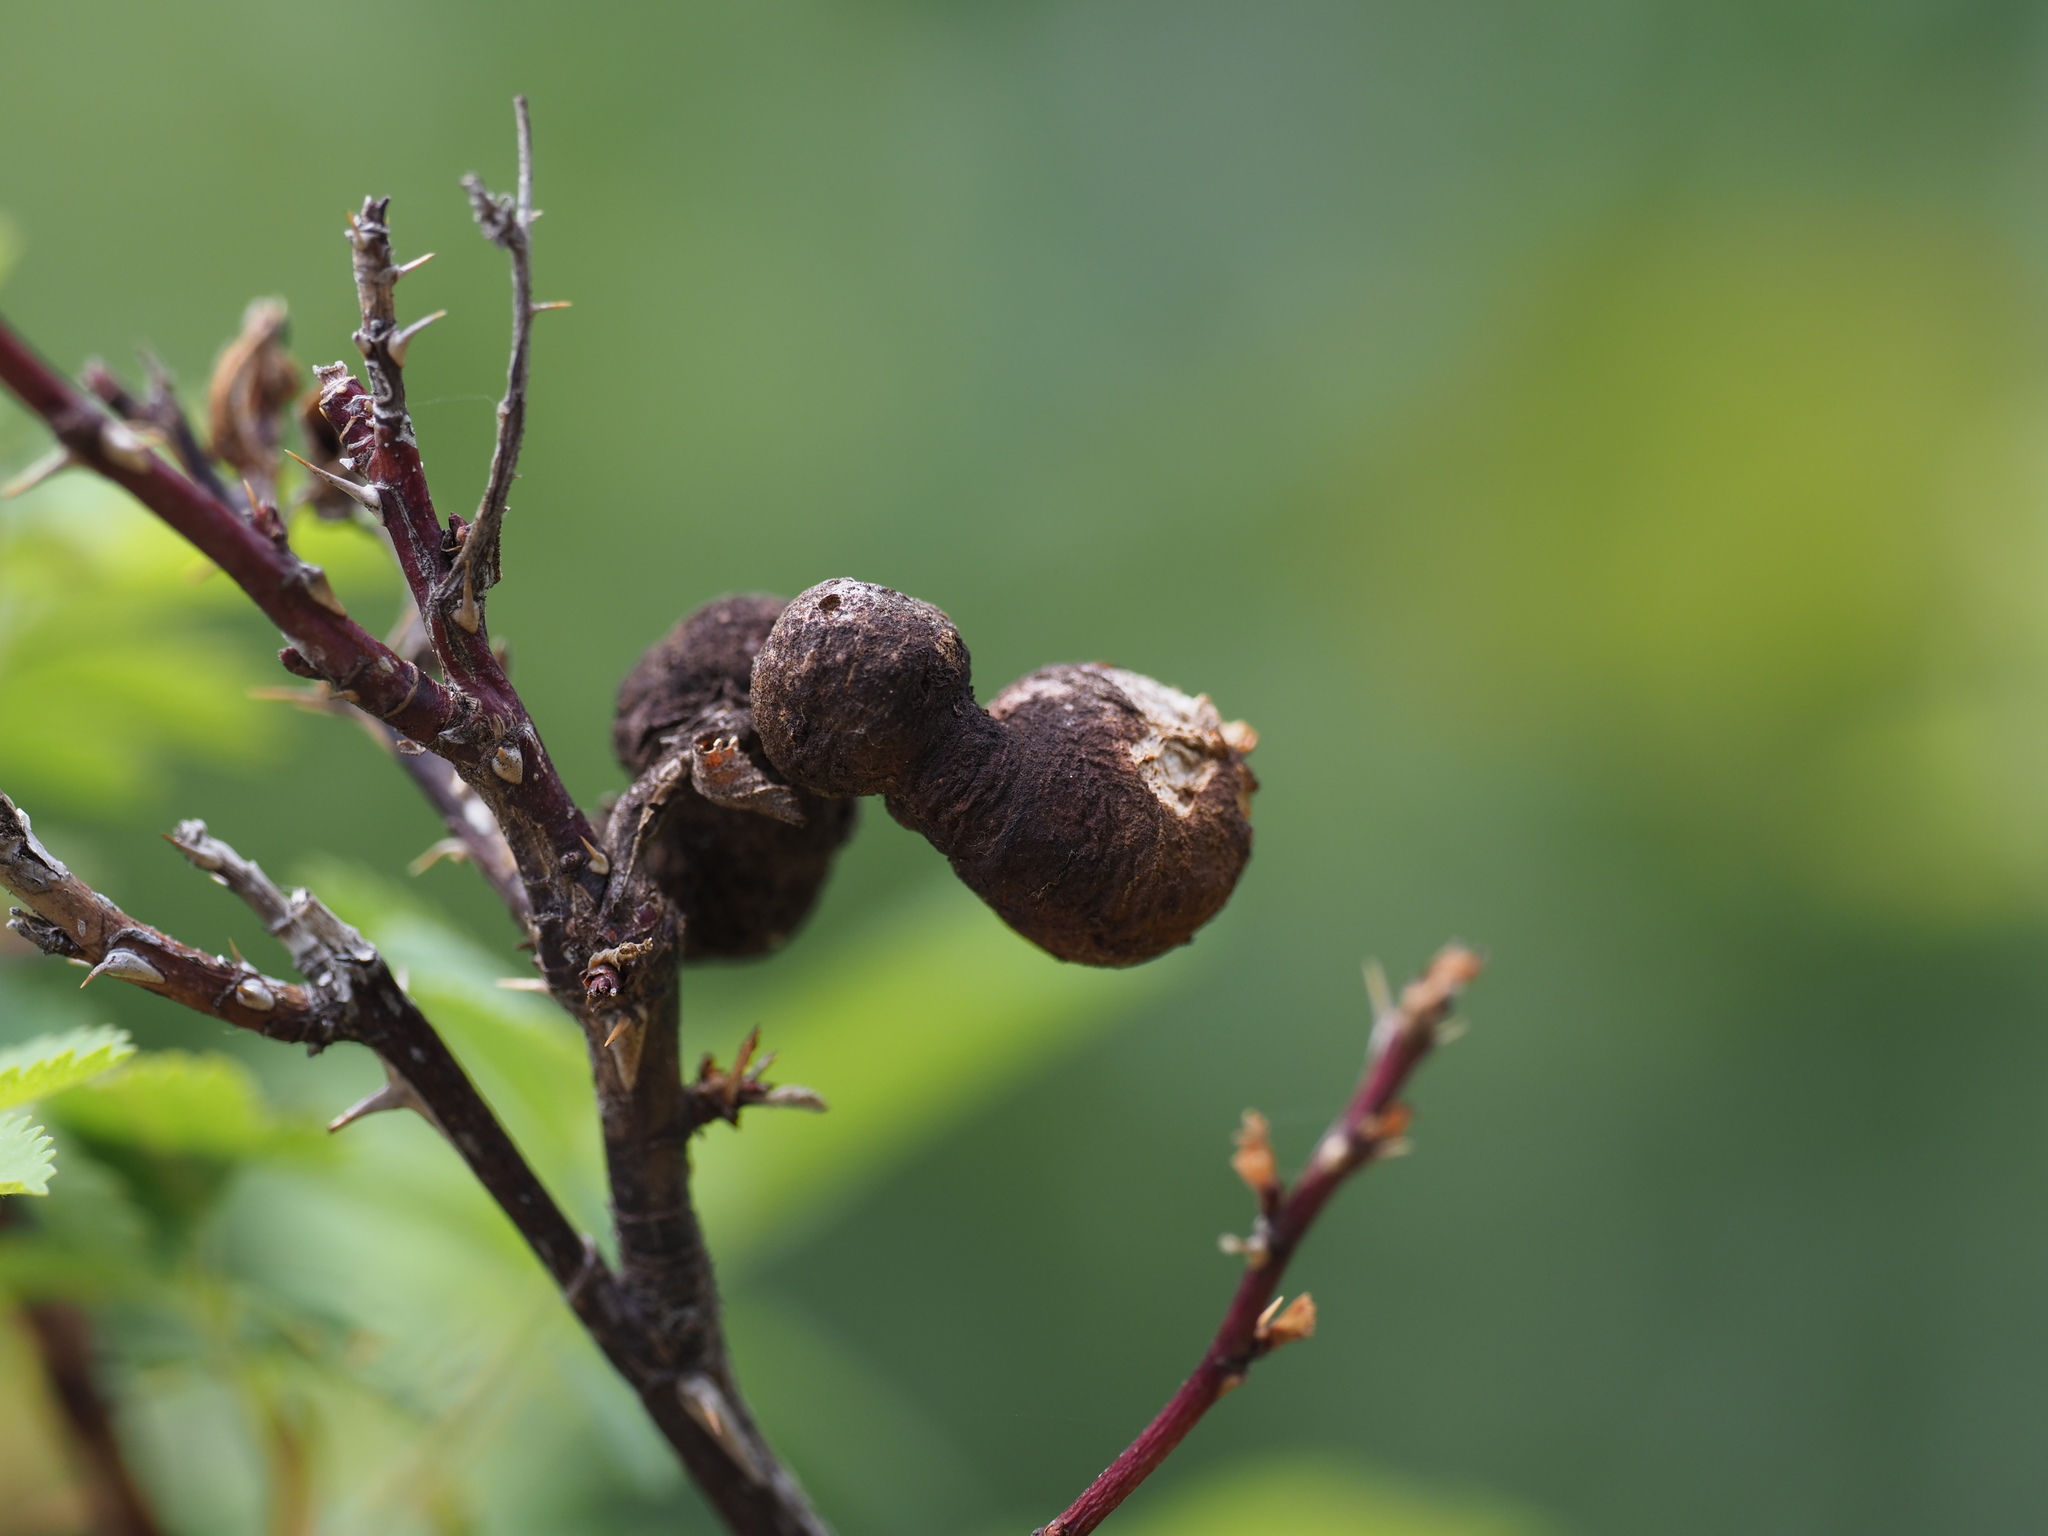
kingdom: Animalia
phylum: Arthropoda
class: Insecta
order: Hymenoptera
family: Cynipidae
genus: Diplolepis
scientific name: Diplolepis variabilis
